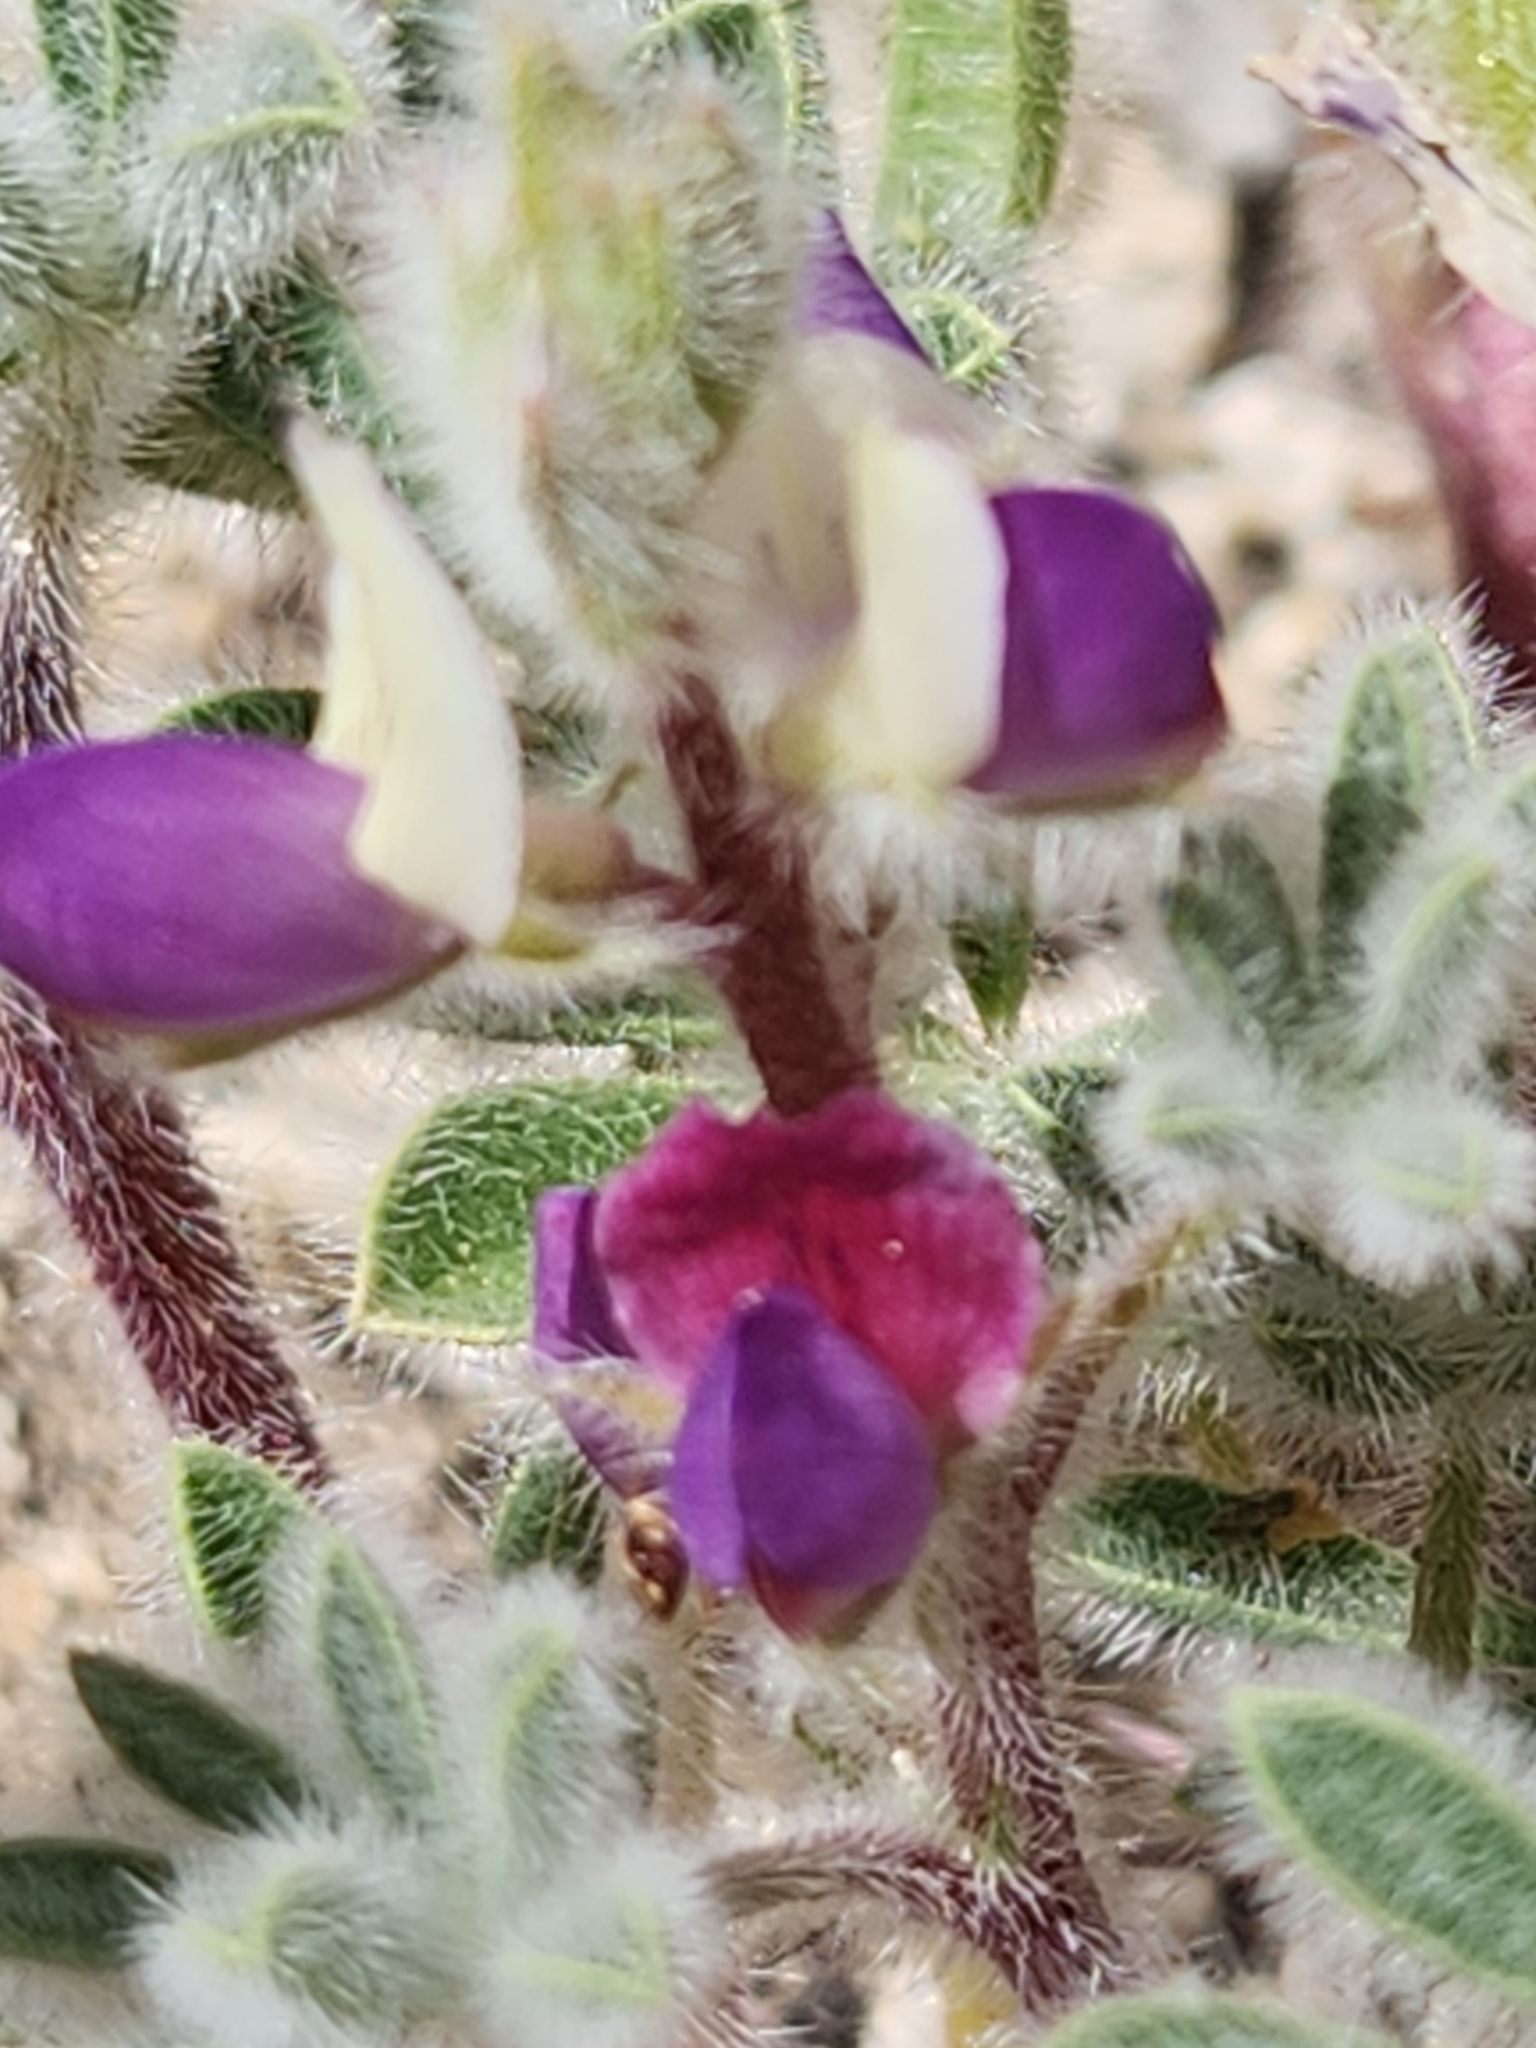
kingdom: Plantae
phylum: Tracheophyta
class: Magnoliopsida
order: Fabales
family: Fabaceae
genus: Lupinus
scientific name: Lupinus concinnus
